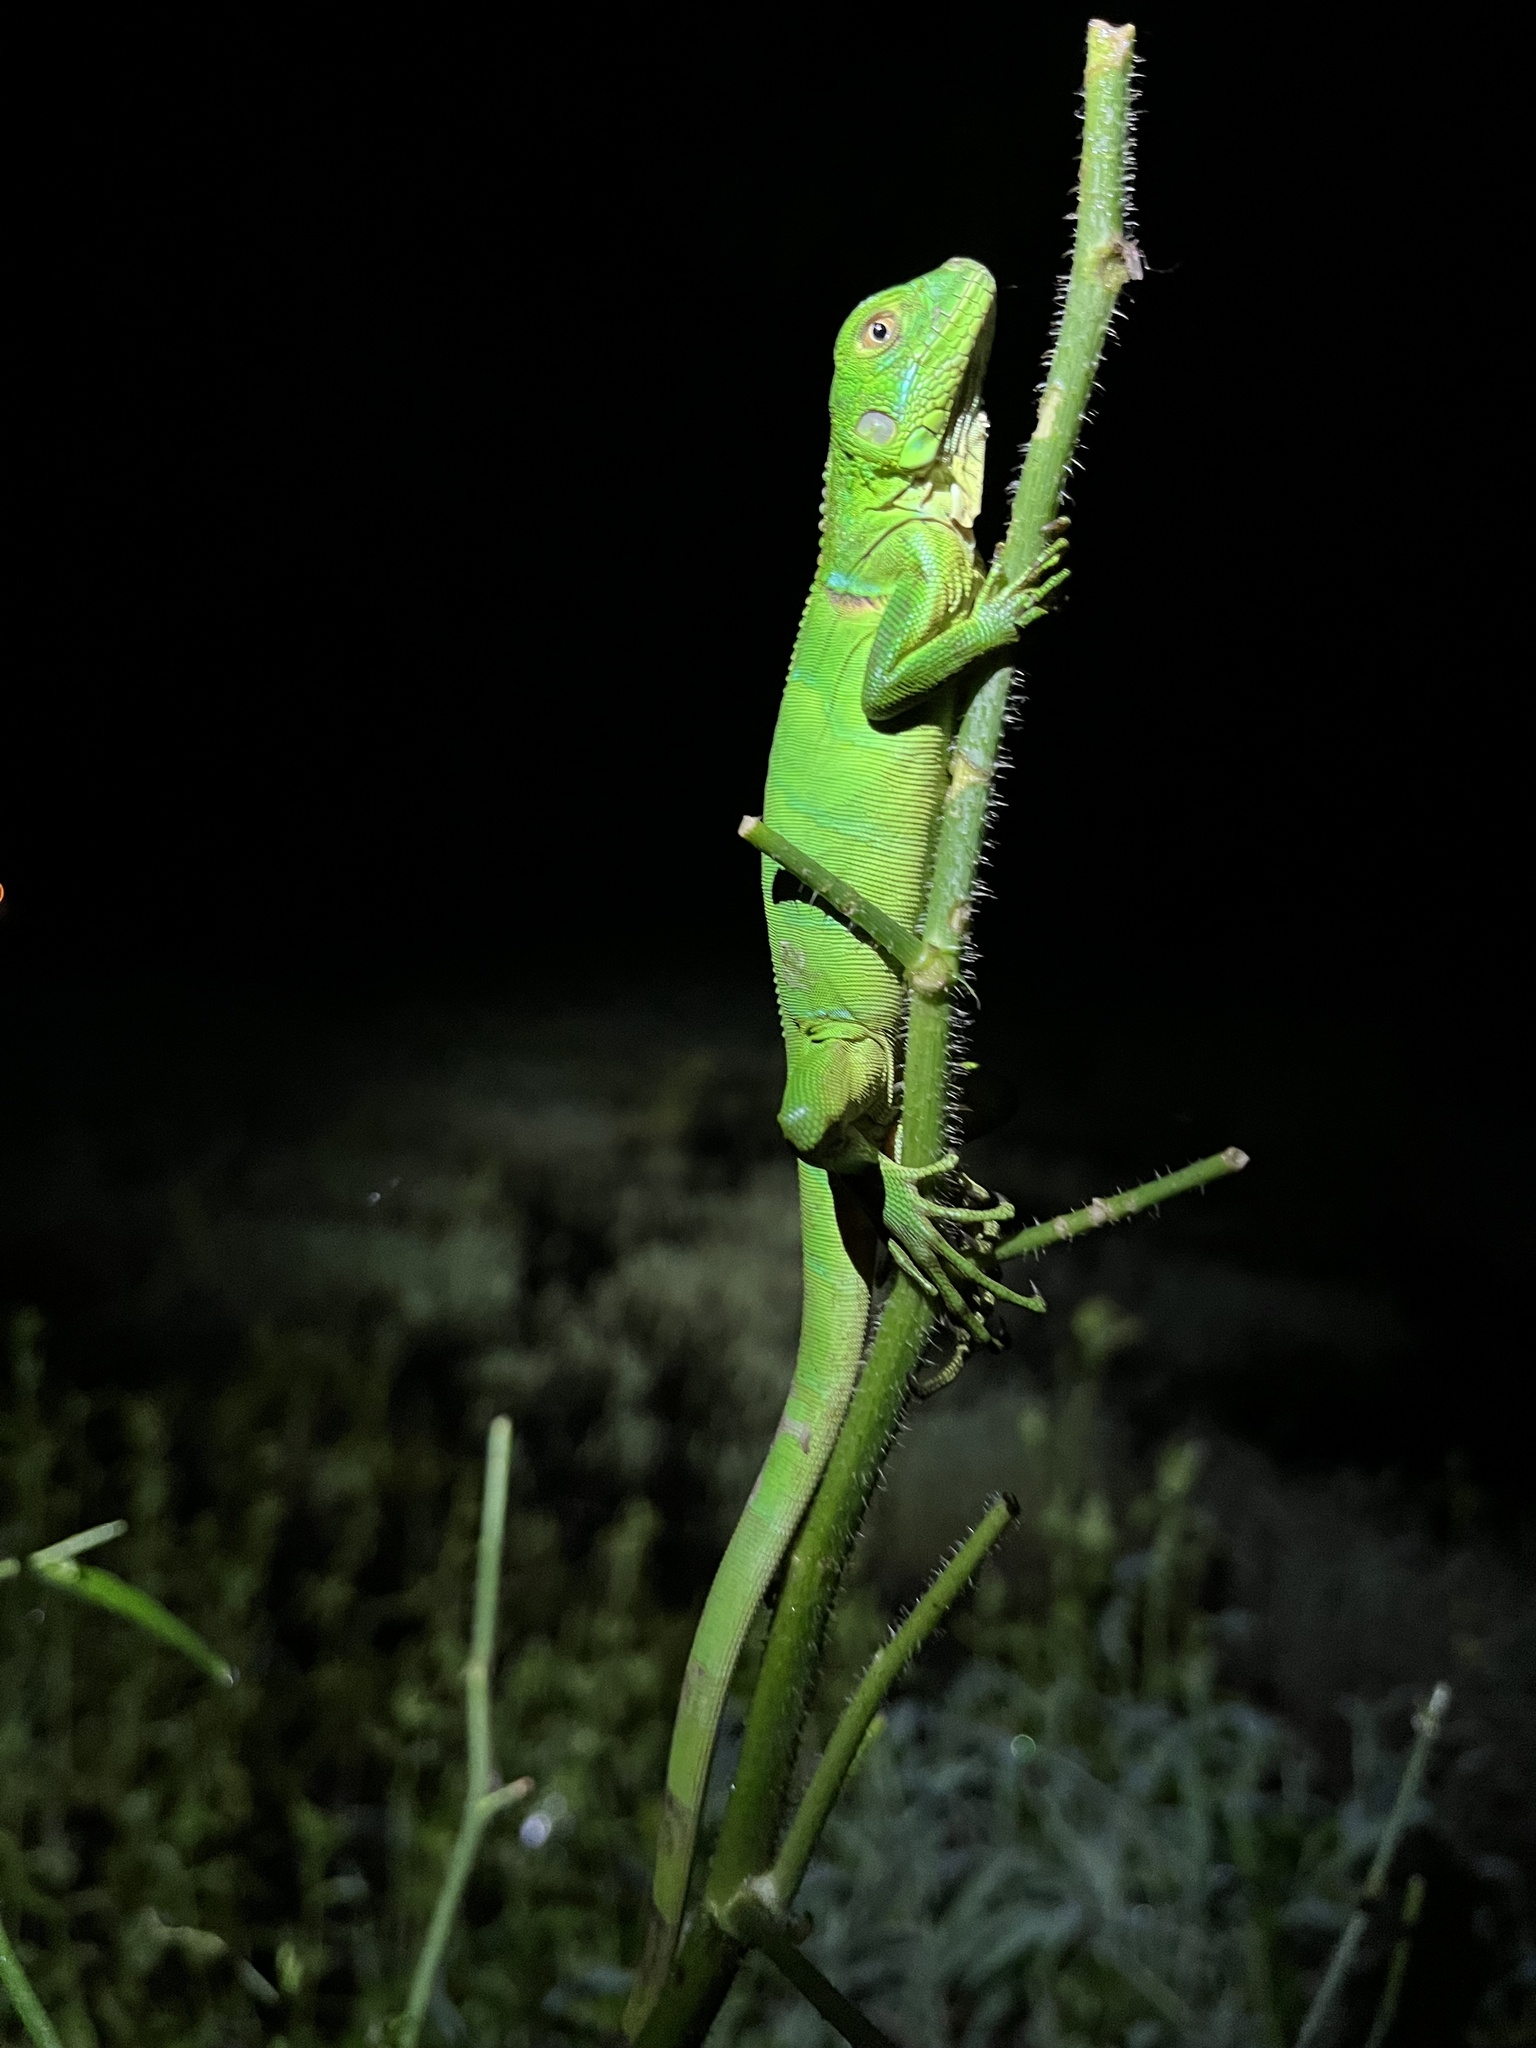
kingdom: Animalia
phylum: Chordata
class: Squamata
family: Iguanidae
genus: Iguana
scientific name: Iguana iguana
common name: Green iguana
